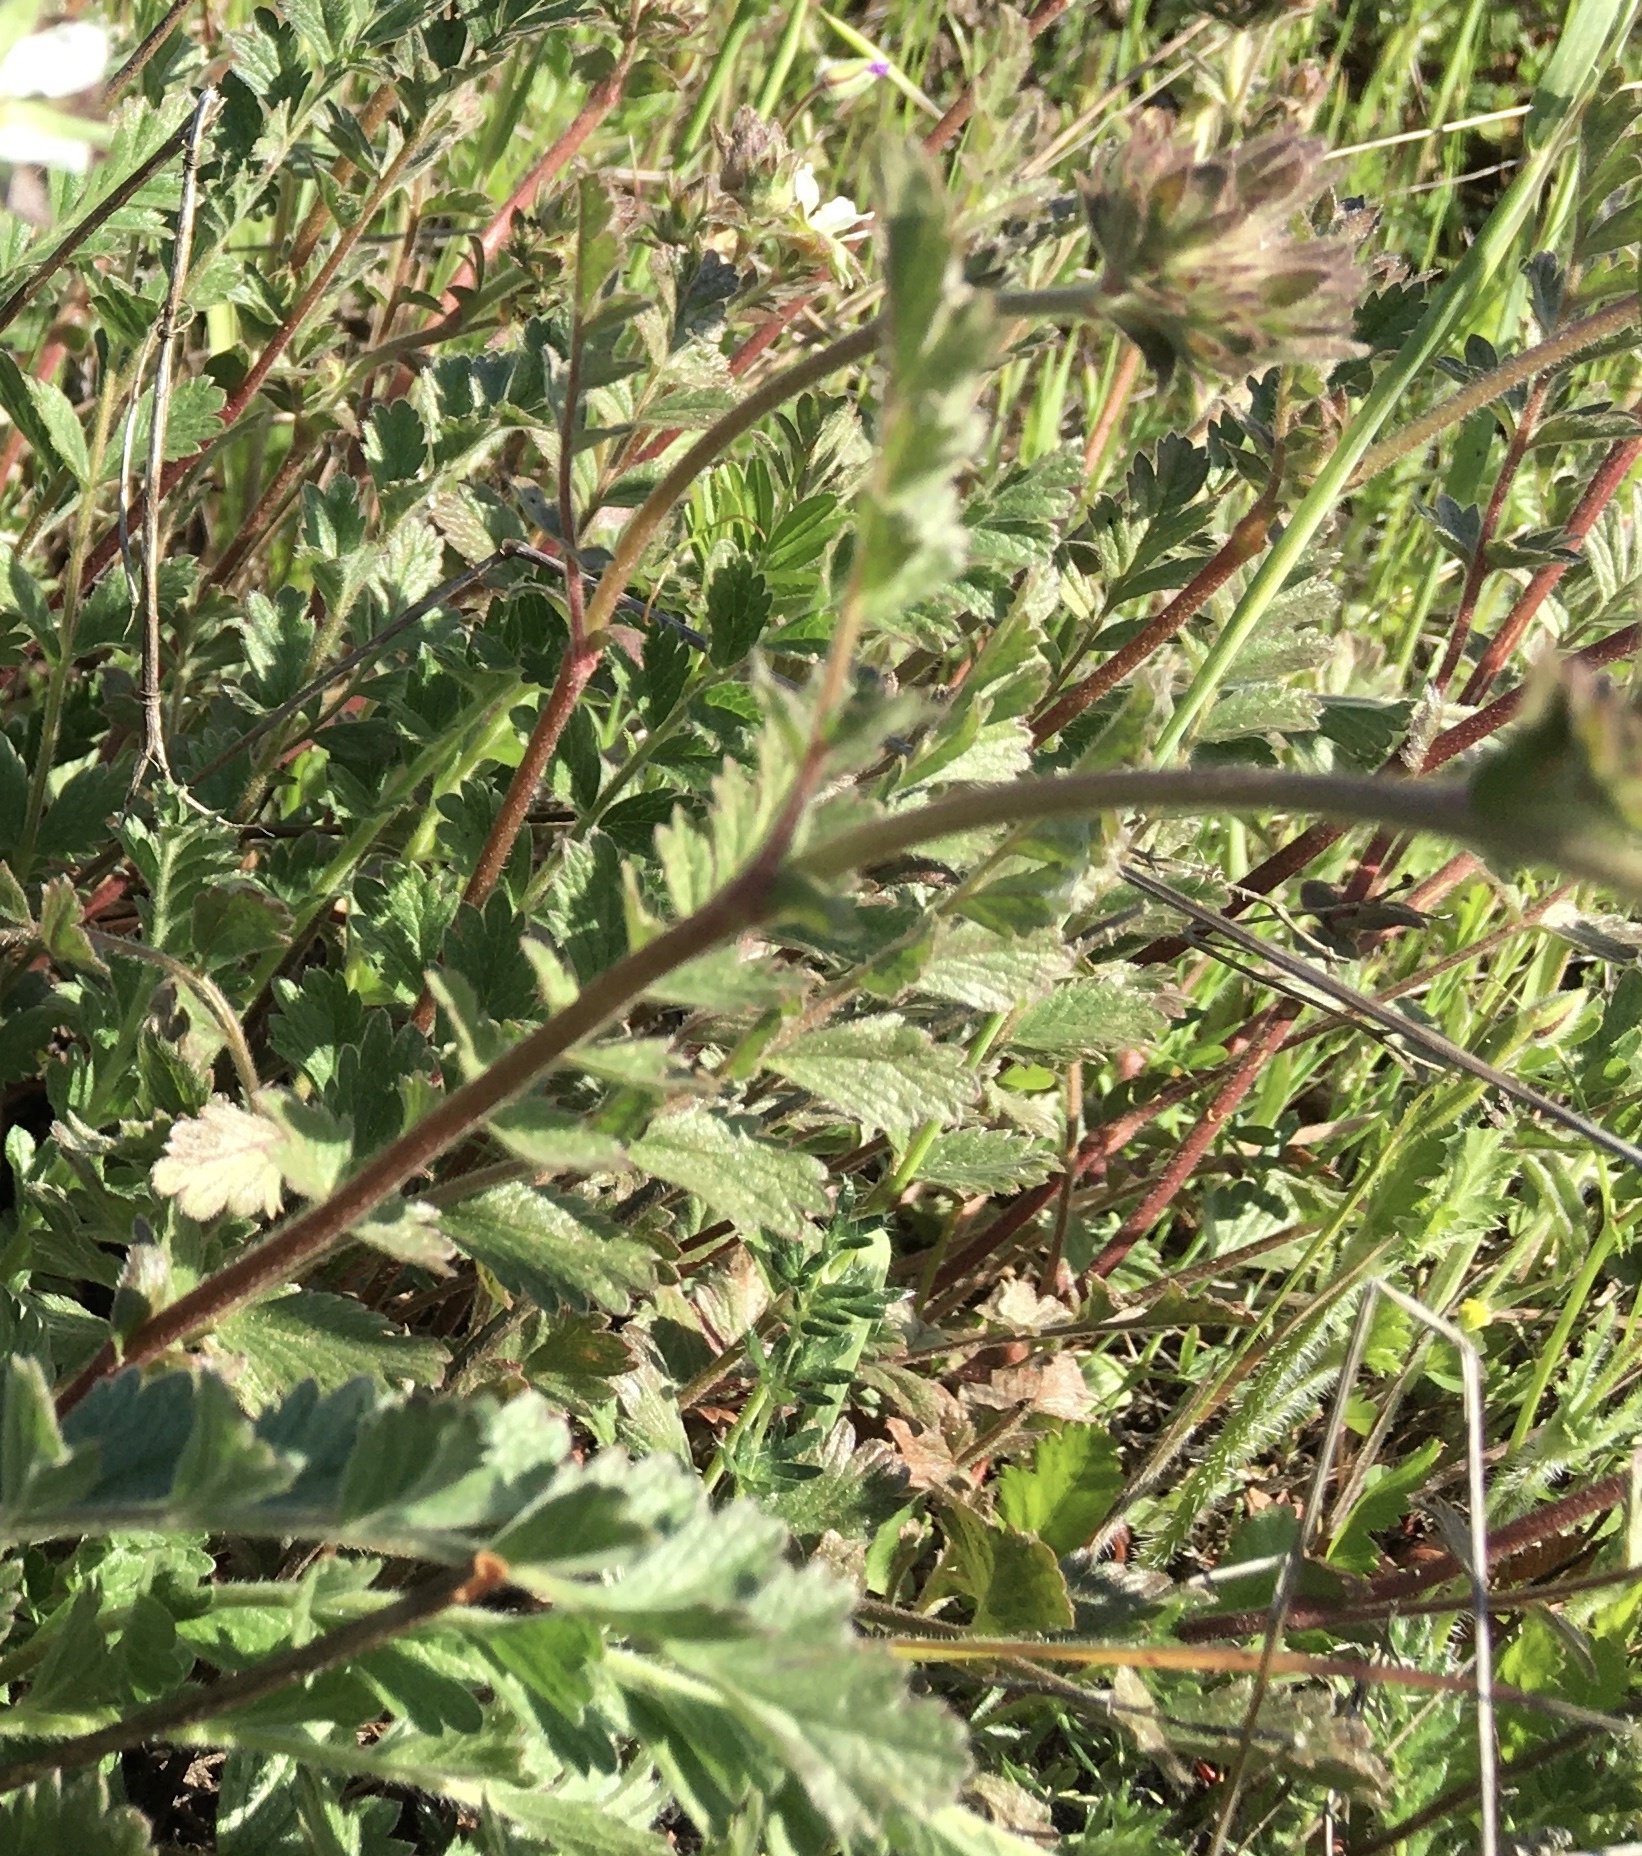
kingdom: Plantae
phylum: Tracheophyta
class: Magnoliopsida
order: Rosales
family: Rosaceae
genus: Potentilla
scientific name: Potentilla
